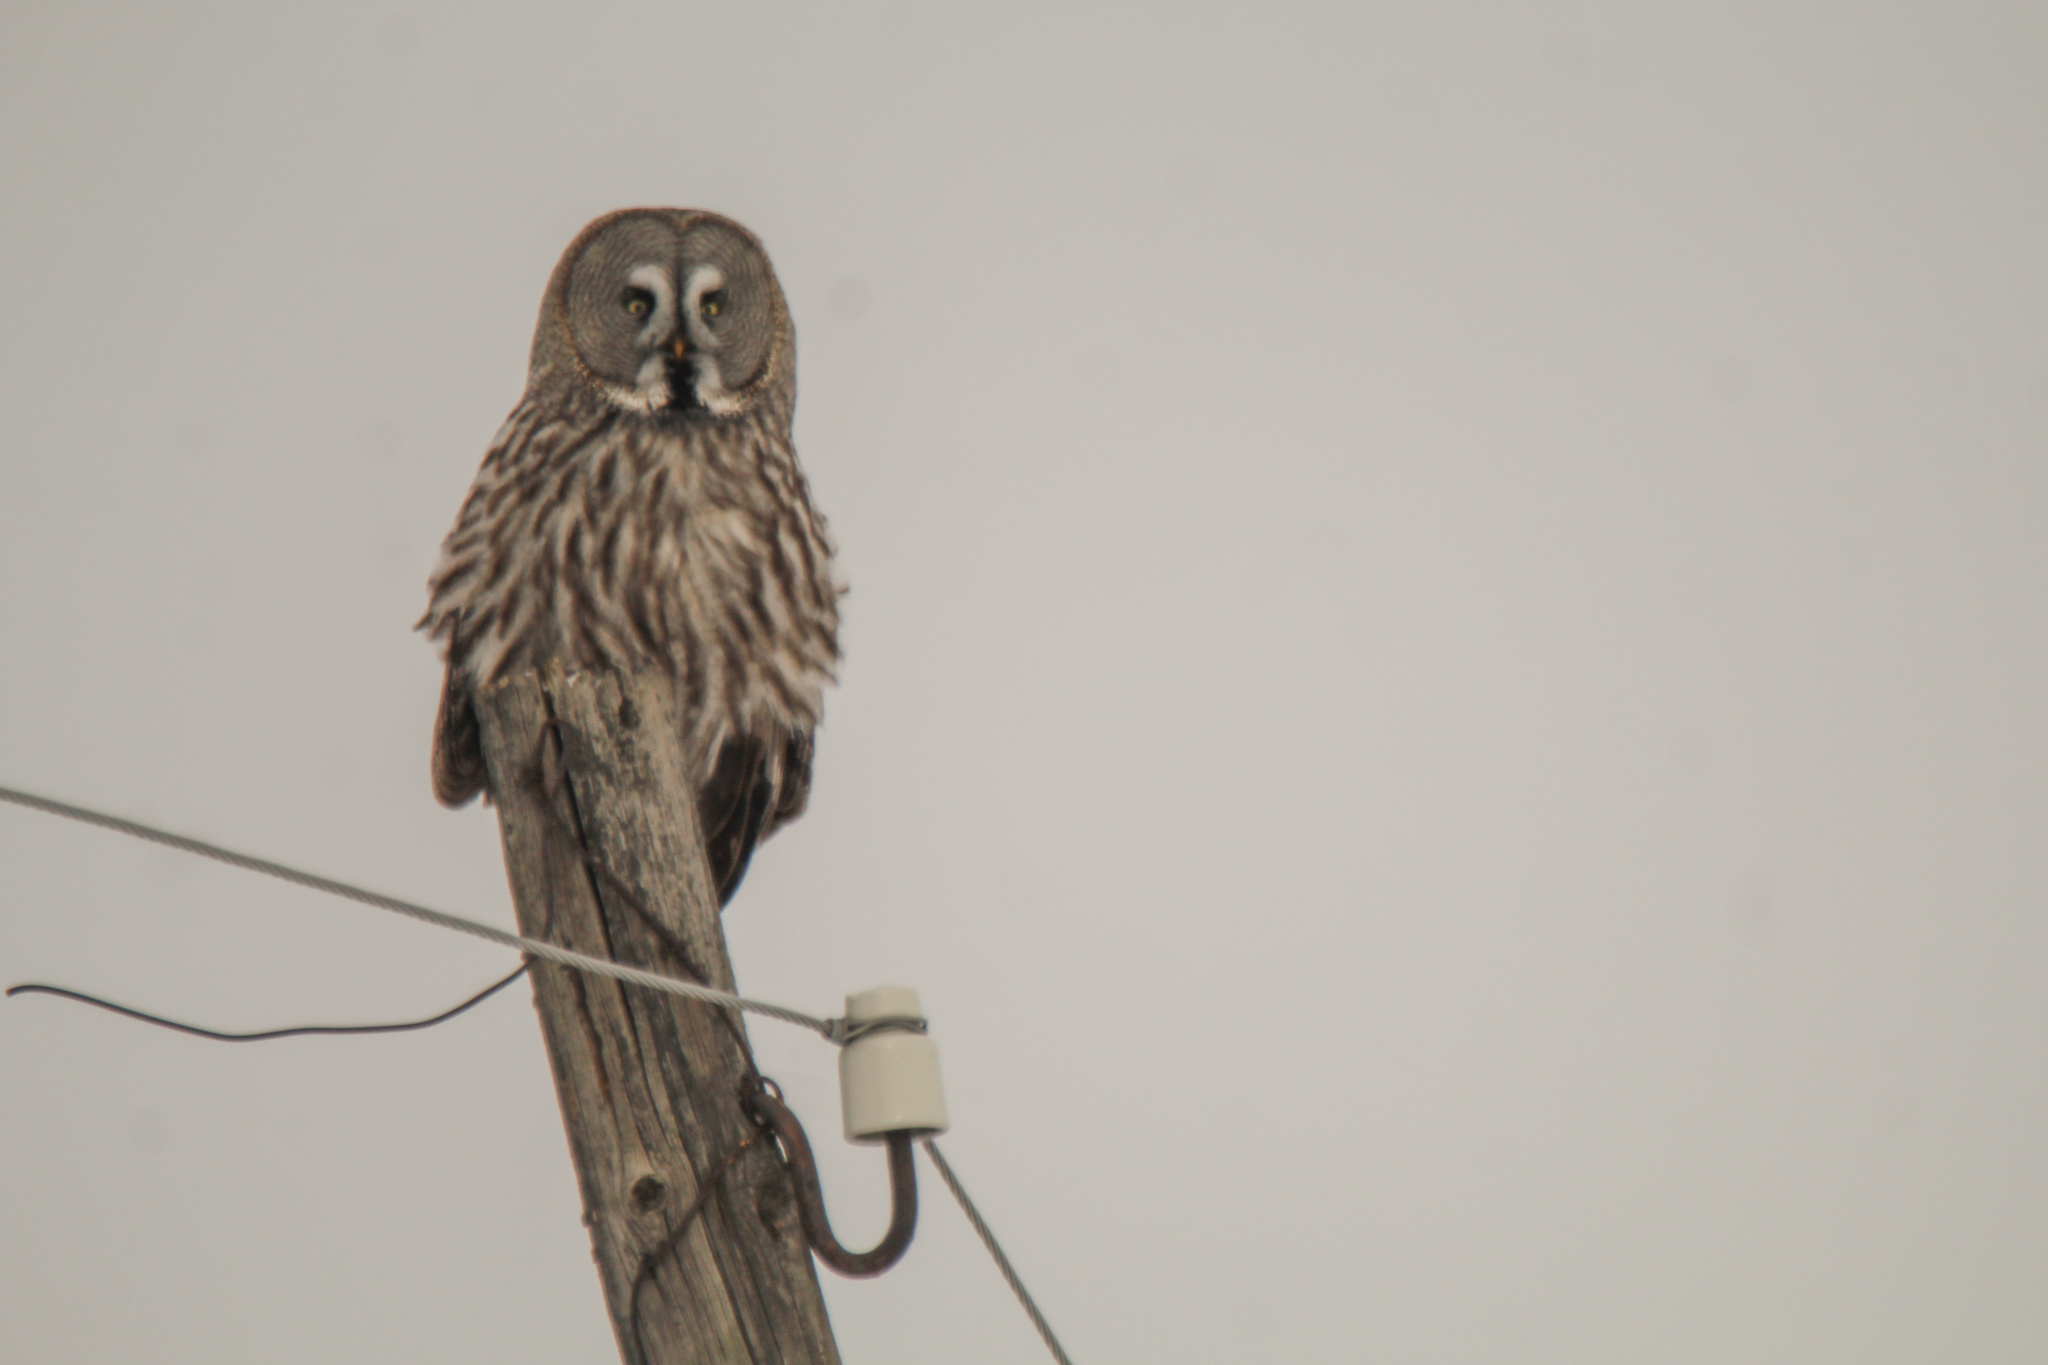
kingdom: Animalia
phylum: Chordata
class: Aves
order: Strigiformes
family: Strigidae
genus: Strix
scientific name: Strix nebulosa
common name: Great grey owl
